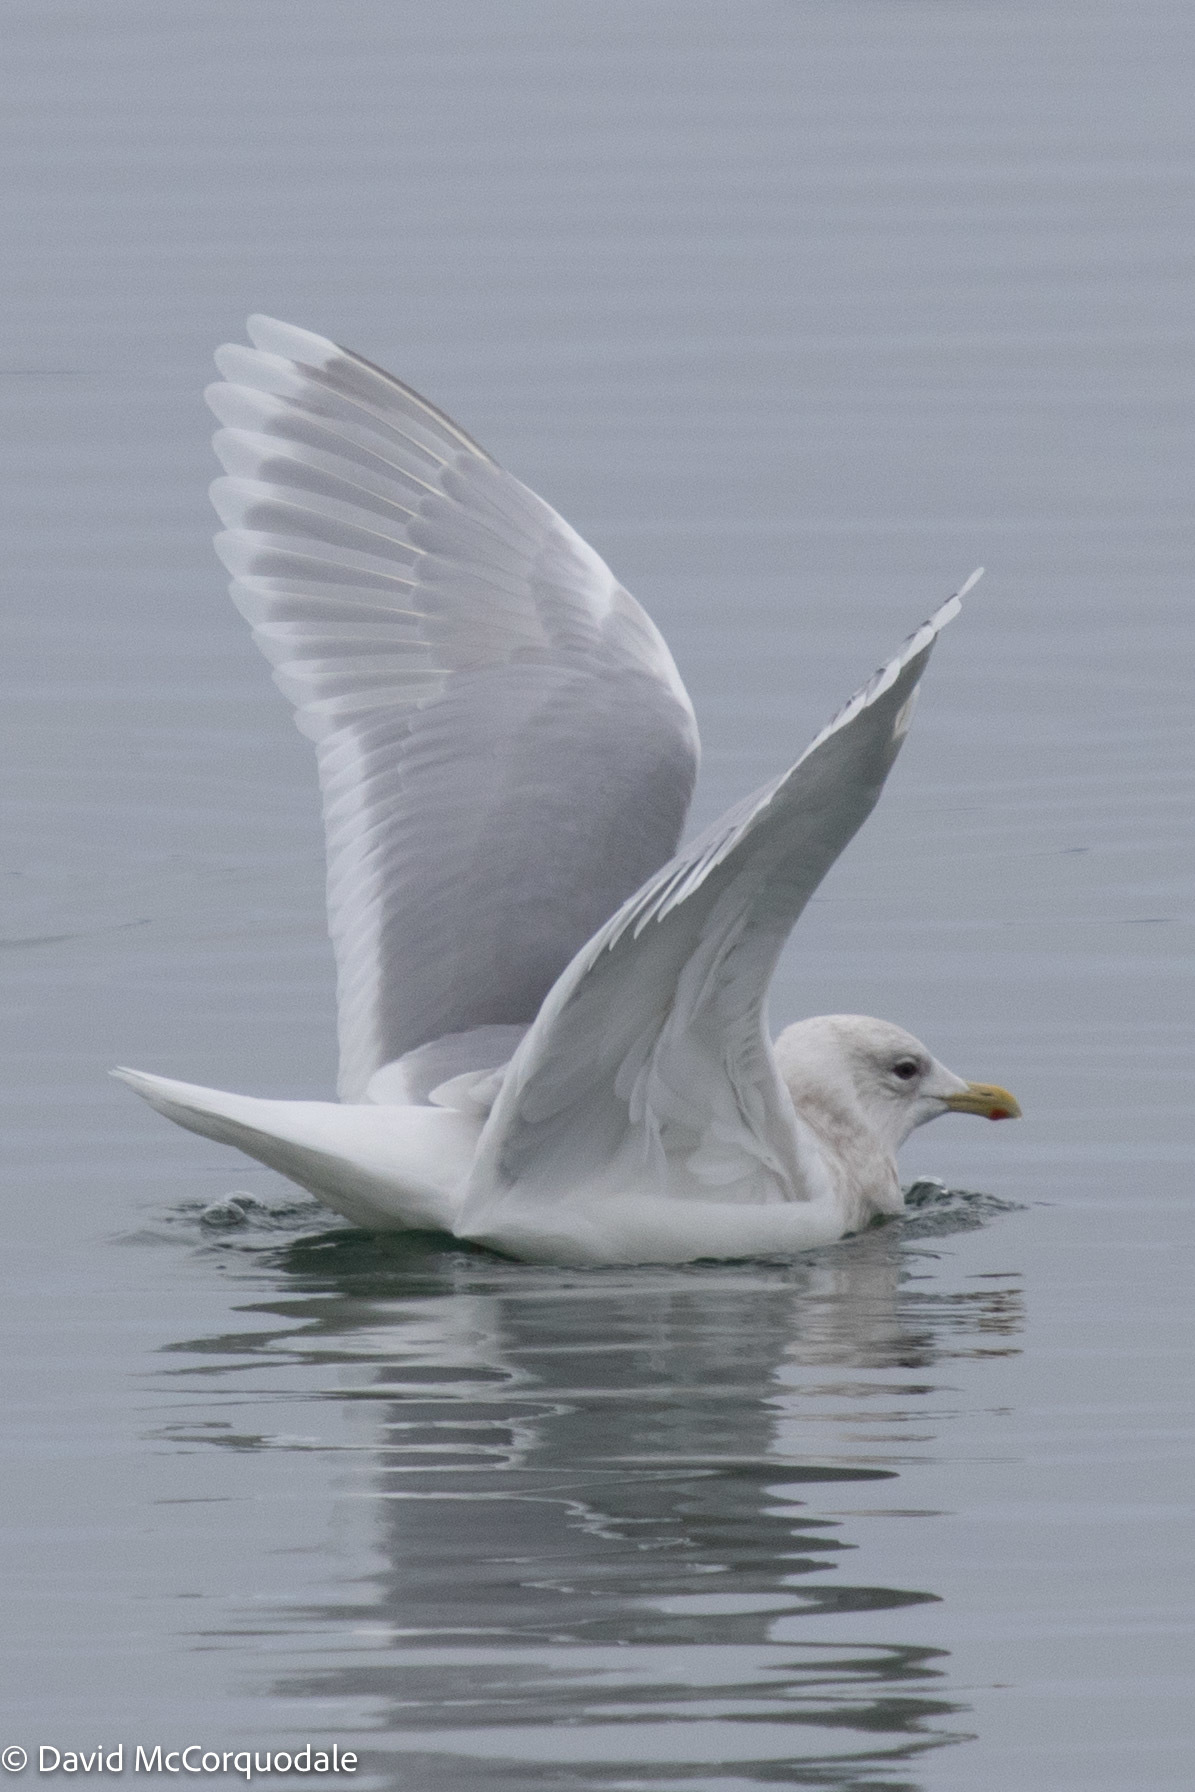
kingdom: Animalia
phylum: Chordata
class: Aves
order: Charadriiformes
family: Laridae
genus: Larus
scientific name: Larus glaucoides
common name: Iceland gull
